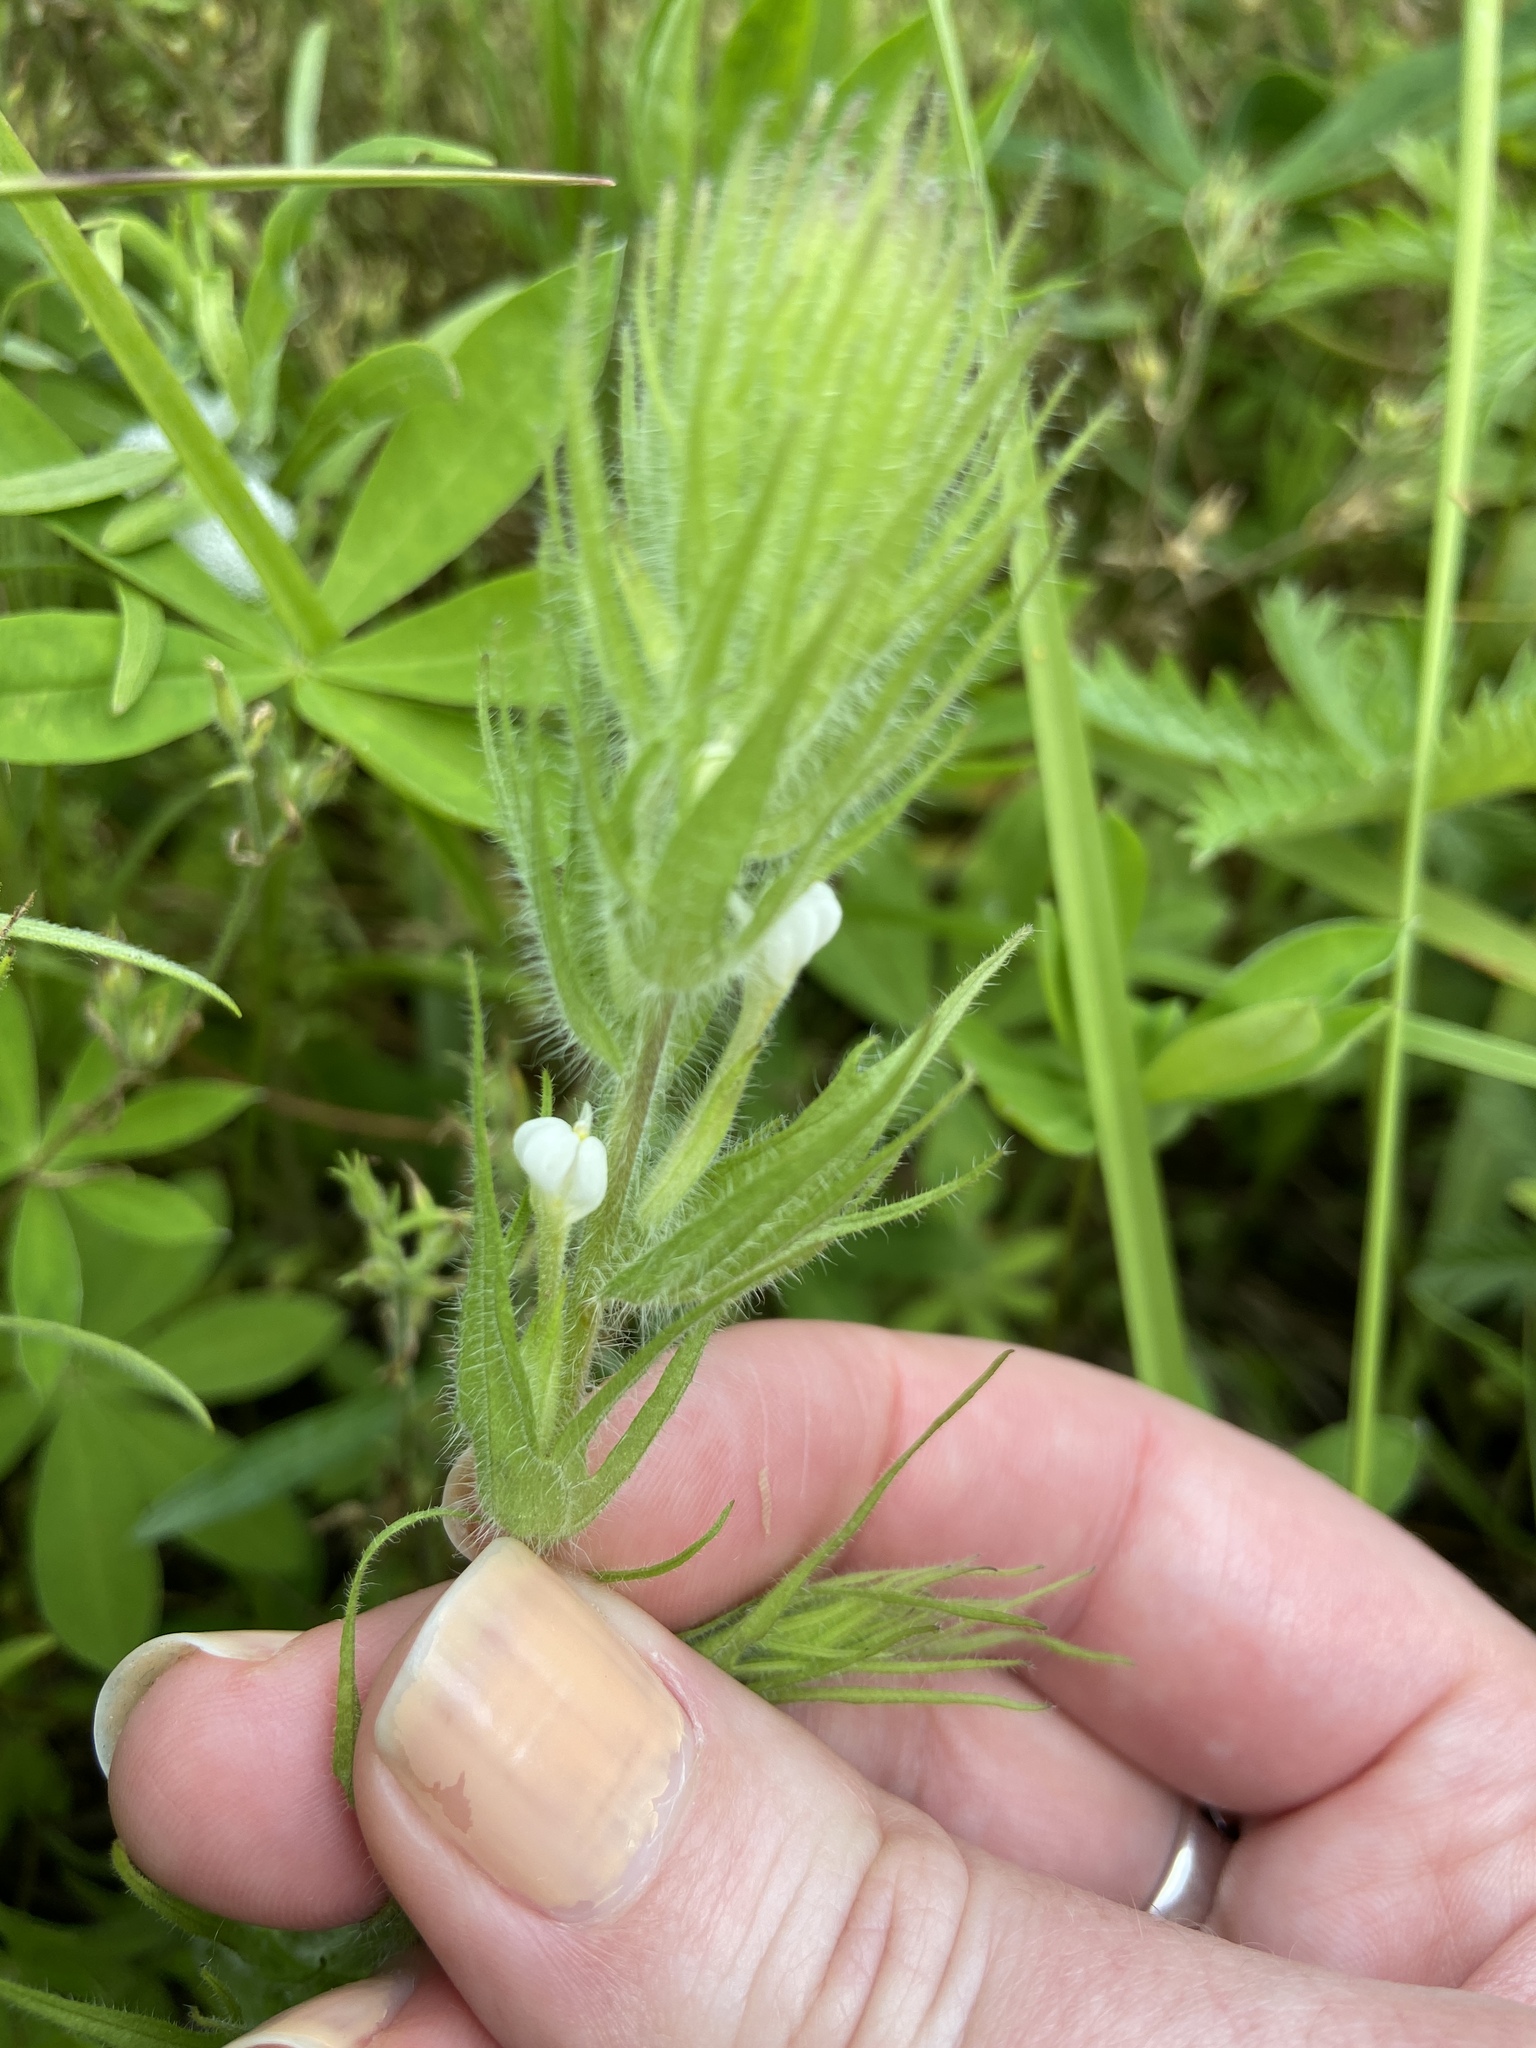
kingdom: Plantae
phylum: Tracheophyta
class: Magnoliopsida
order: Lamiales
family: Orobanchaceae
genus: Castilleja
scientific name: Castilleja tenuis
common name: Hairy indian paintbrush
